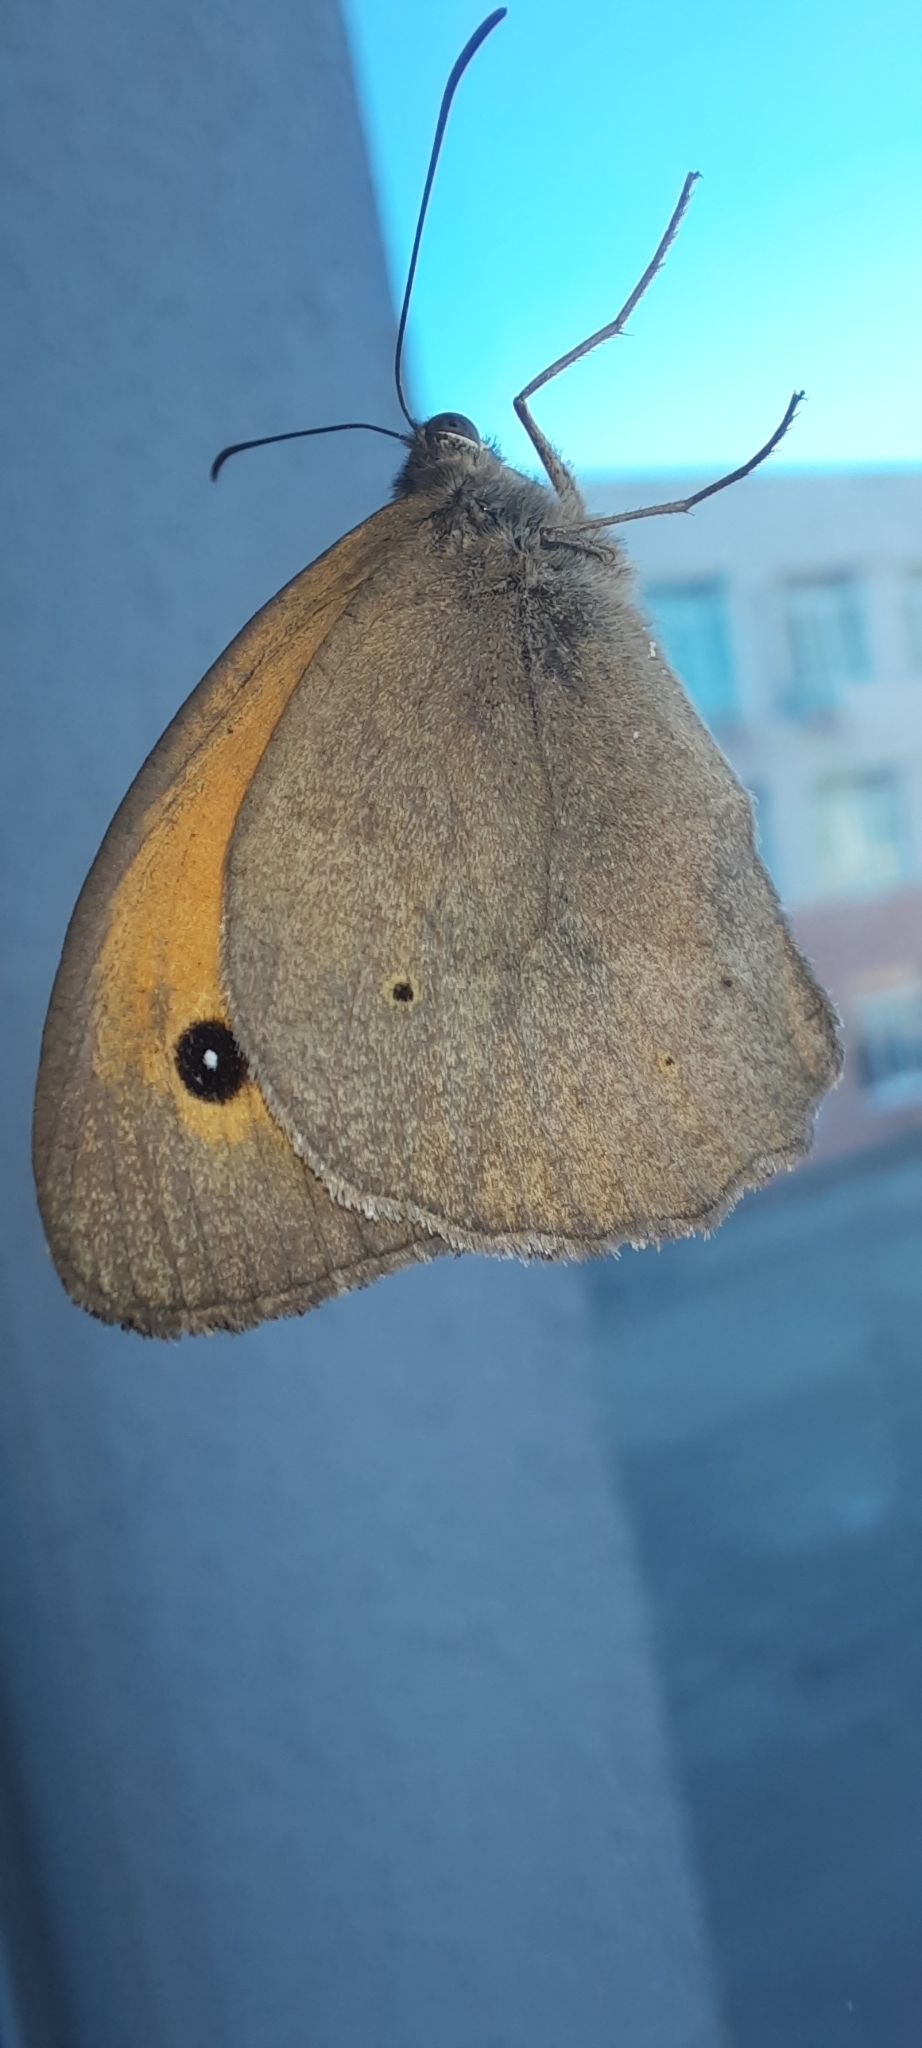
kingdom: Animalia
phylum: Arthropoda
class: Insecta
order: Lepidoptera
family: Nymphalidae
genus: Maniola
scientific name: Maniola jurtina
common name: Meadow brown
